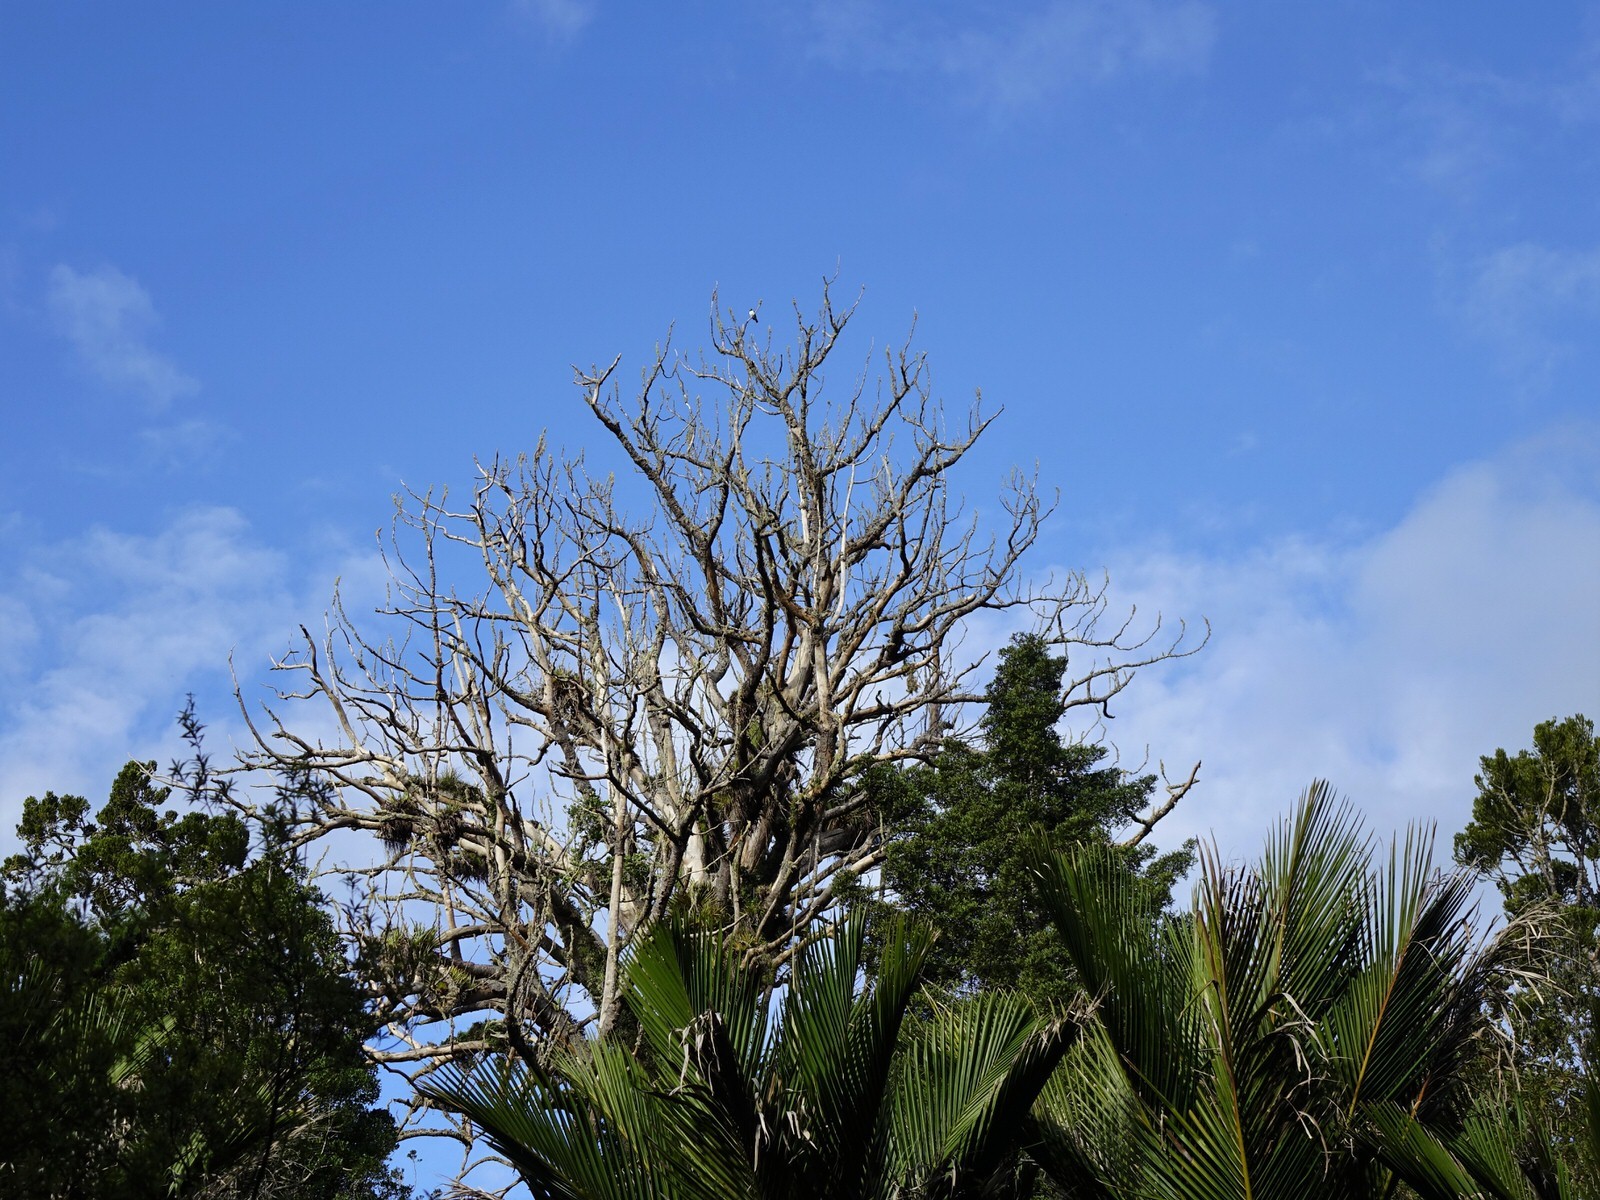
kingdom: Animalia
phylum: Chordata
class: Aves
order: Columbiformes
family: Columbidae
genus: Hemiphaga
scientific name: Hemiphaga novaeseelandiae
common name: New zealand pigeon
